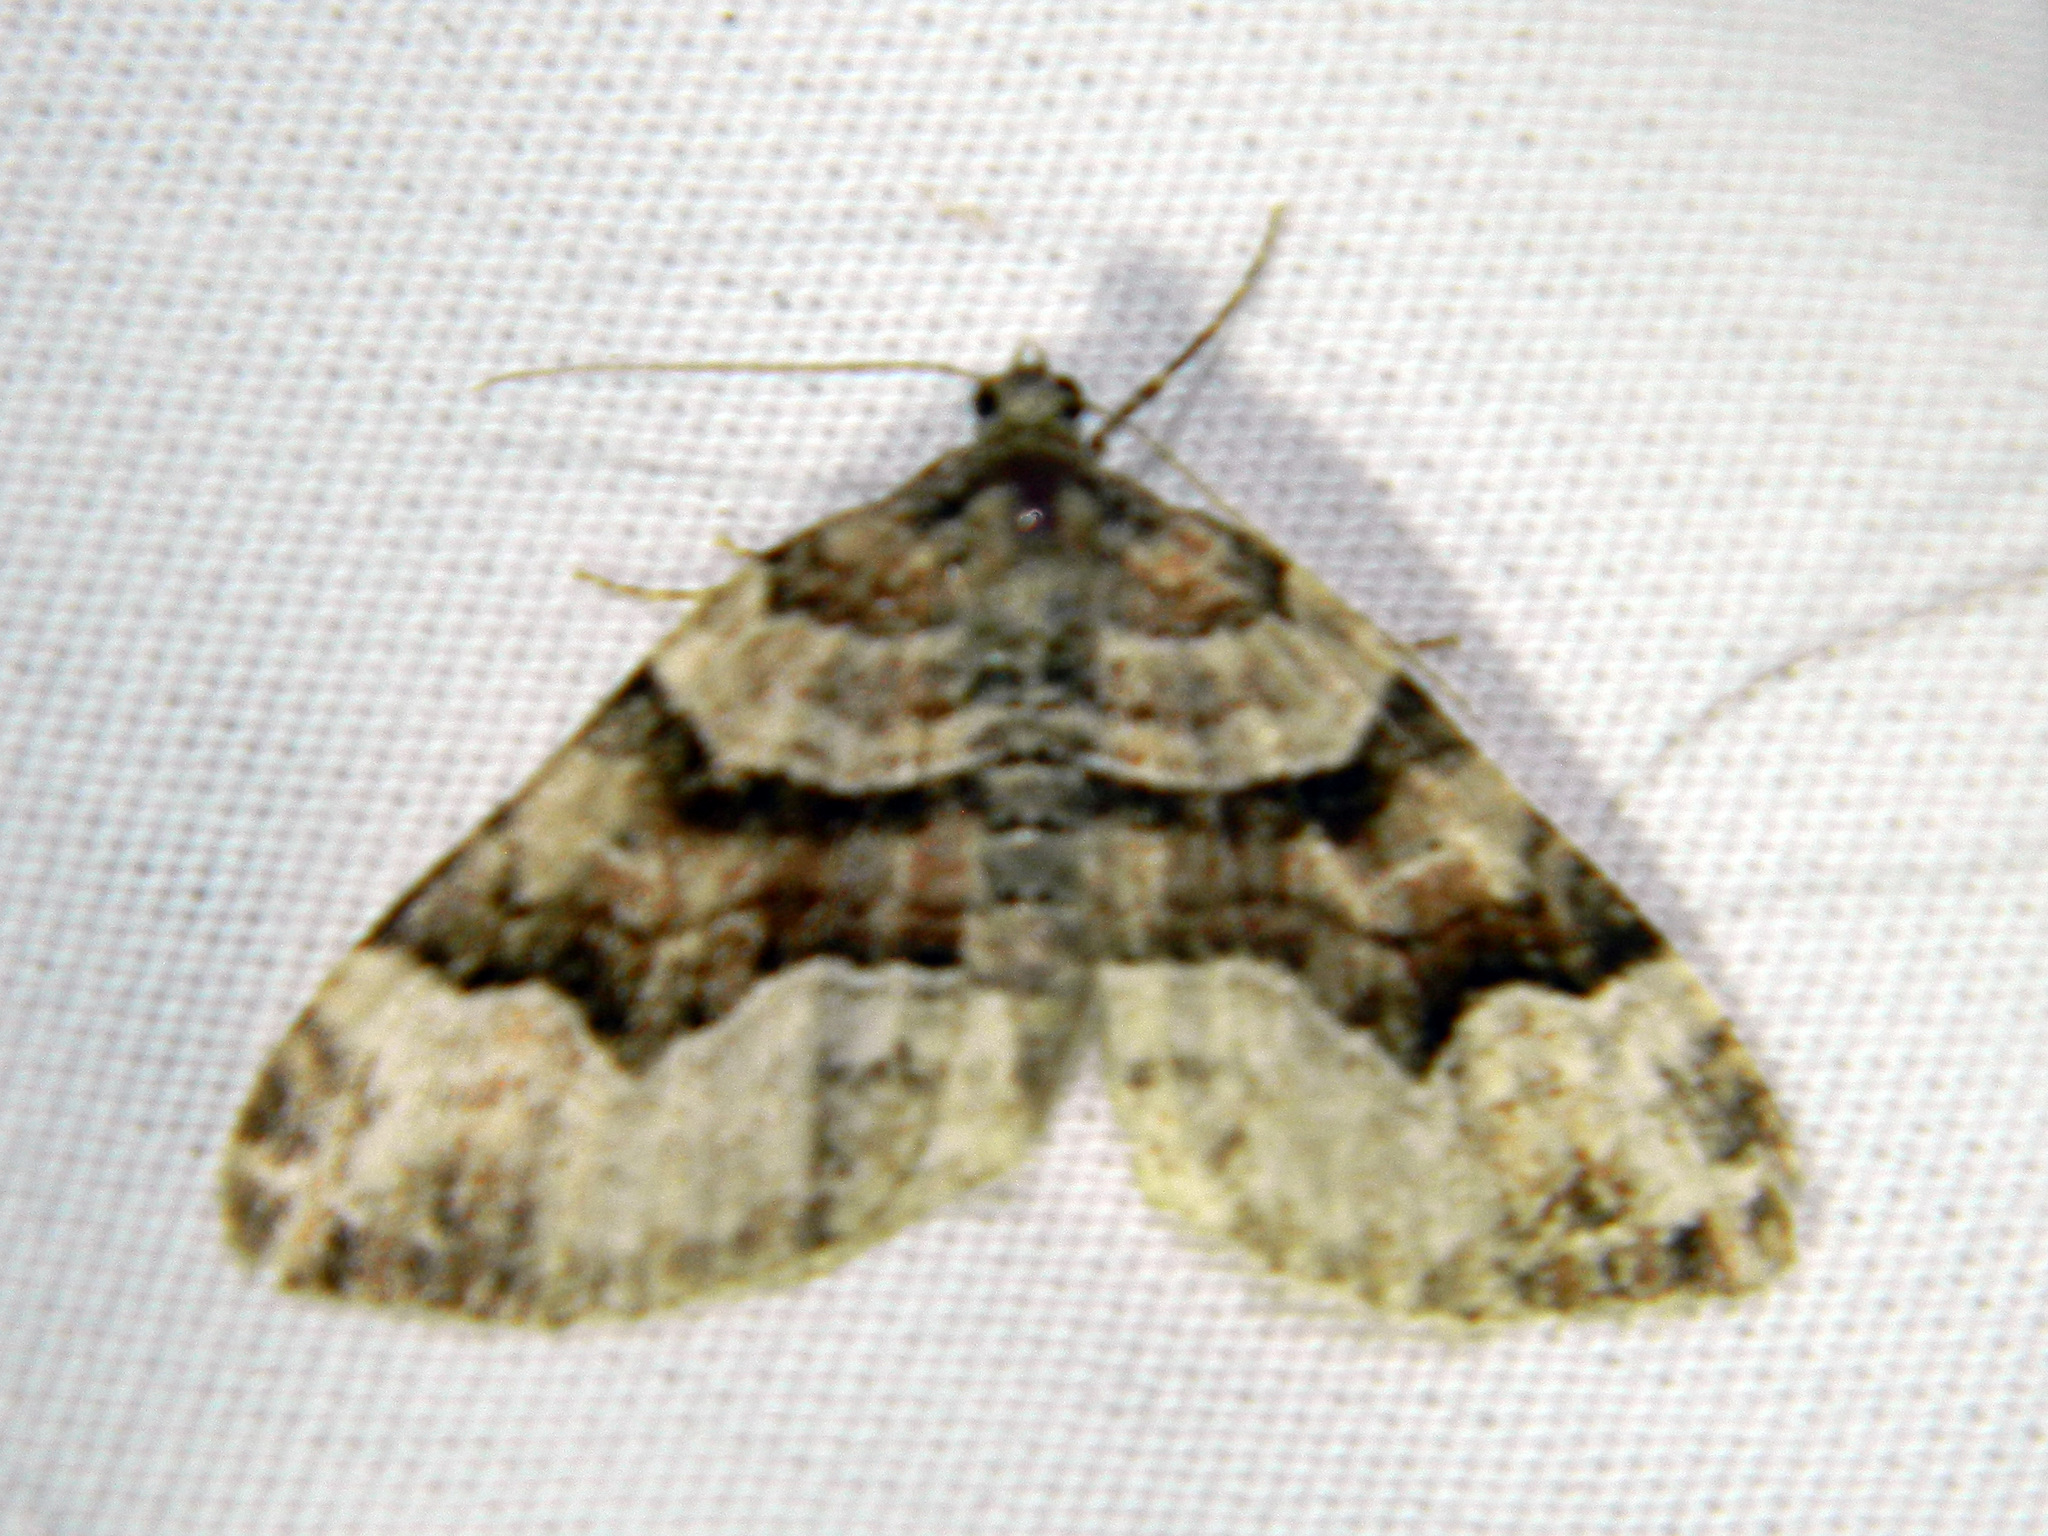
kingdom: Animalia
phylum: Arthropoda
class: Insecta
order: Lepidoptera
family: Geometridae
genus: Xanthorhoe
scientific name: Xanthorhoe lacustrata
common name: Toothed brown carpet
